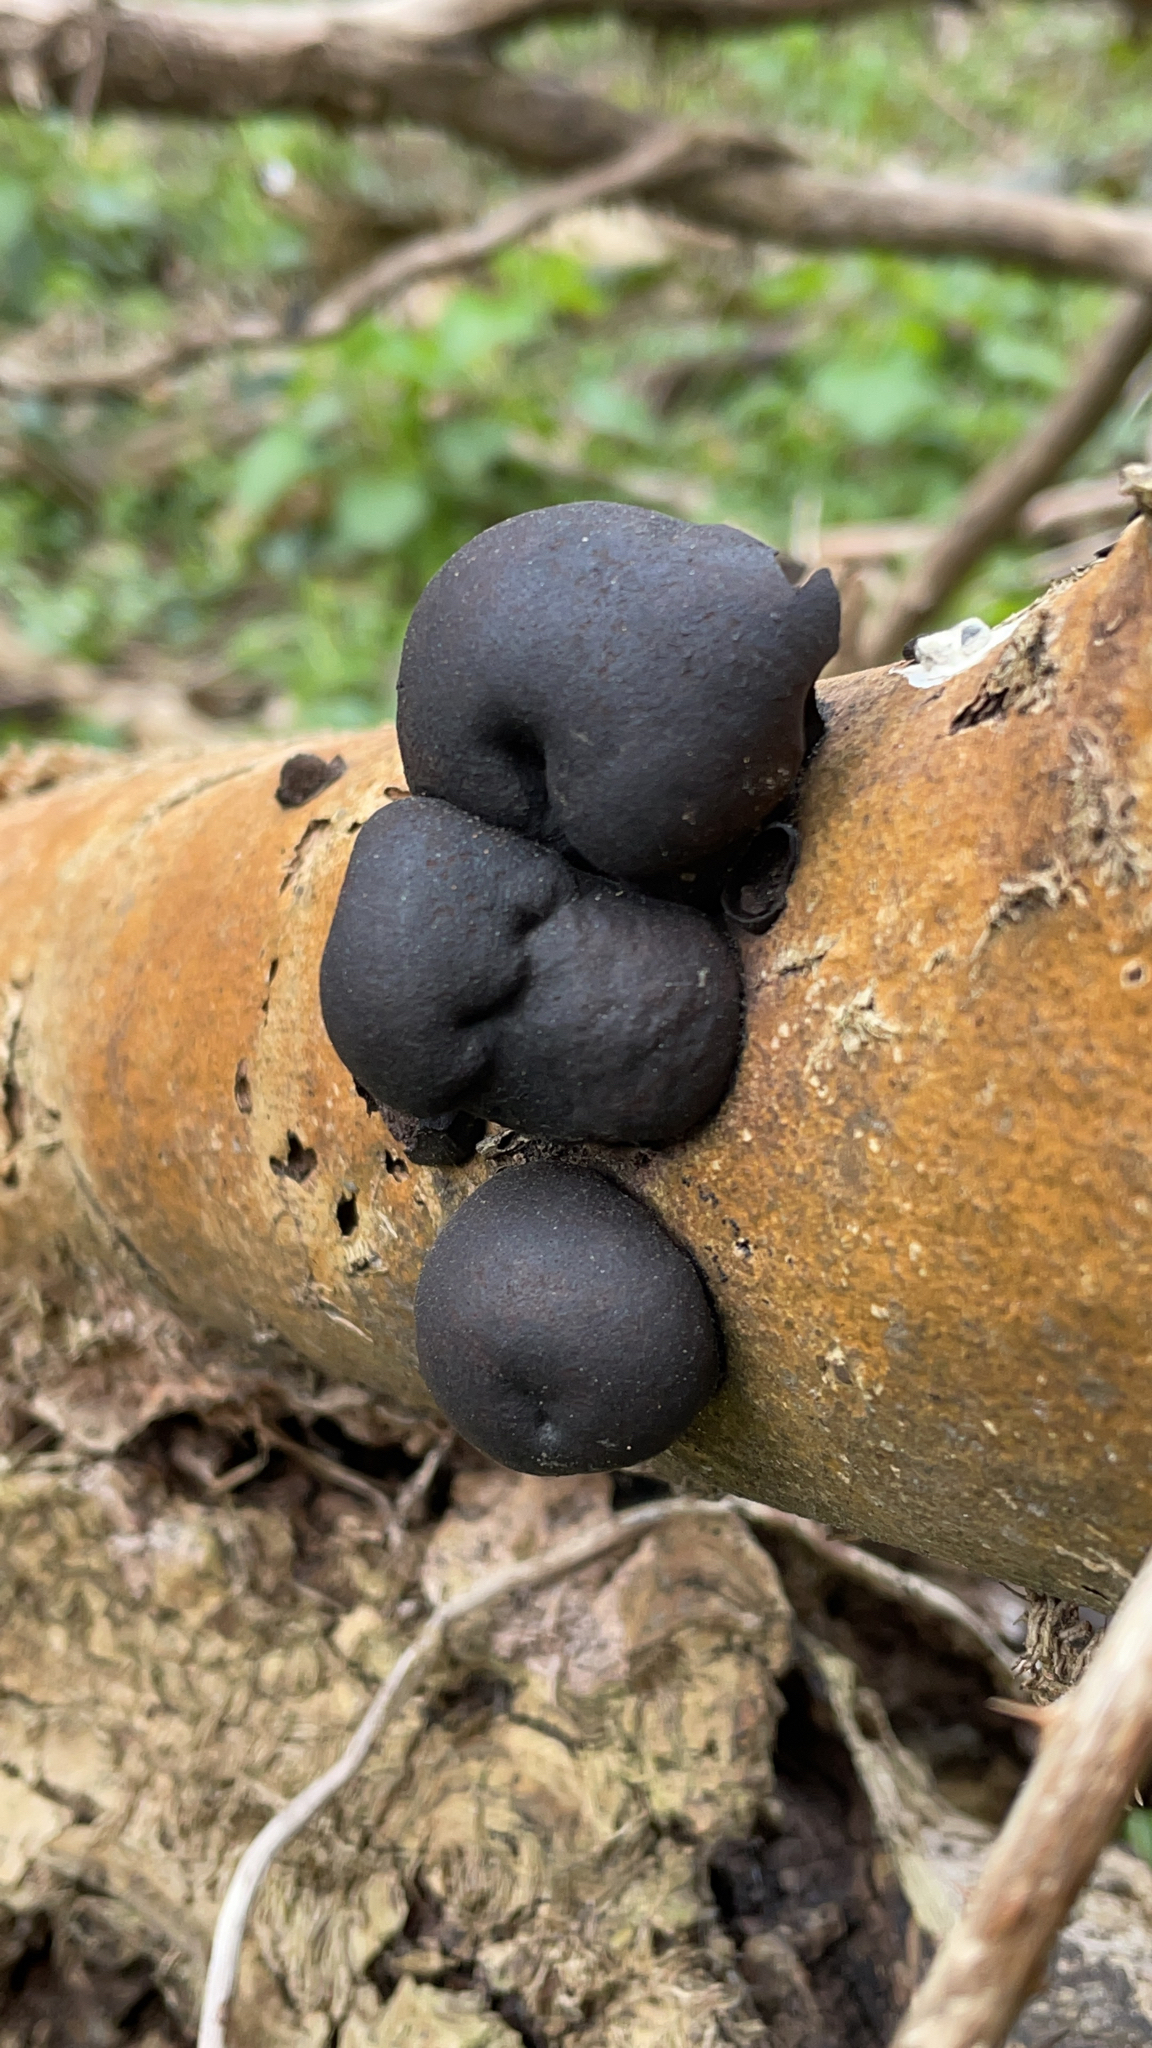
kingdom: Fungi
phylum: Ascomycota
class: Sordariomycetes
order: Xylariales
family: Hypoxylaceae
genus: Daldinia
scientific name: Daldinia concentrica
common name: Cramp balls
